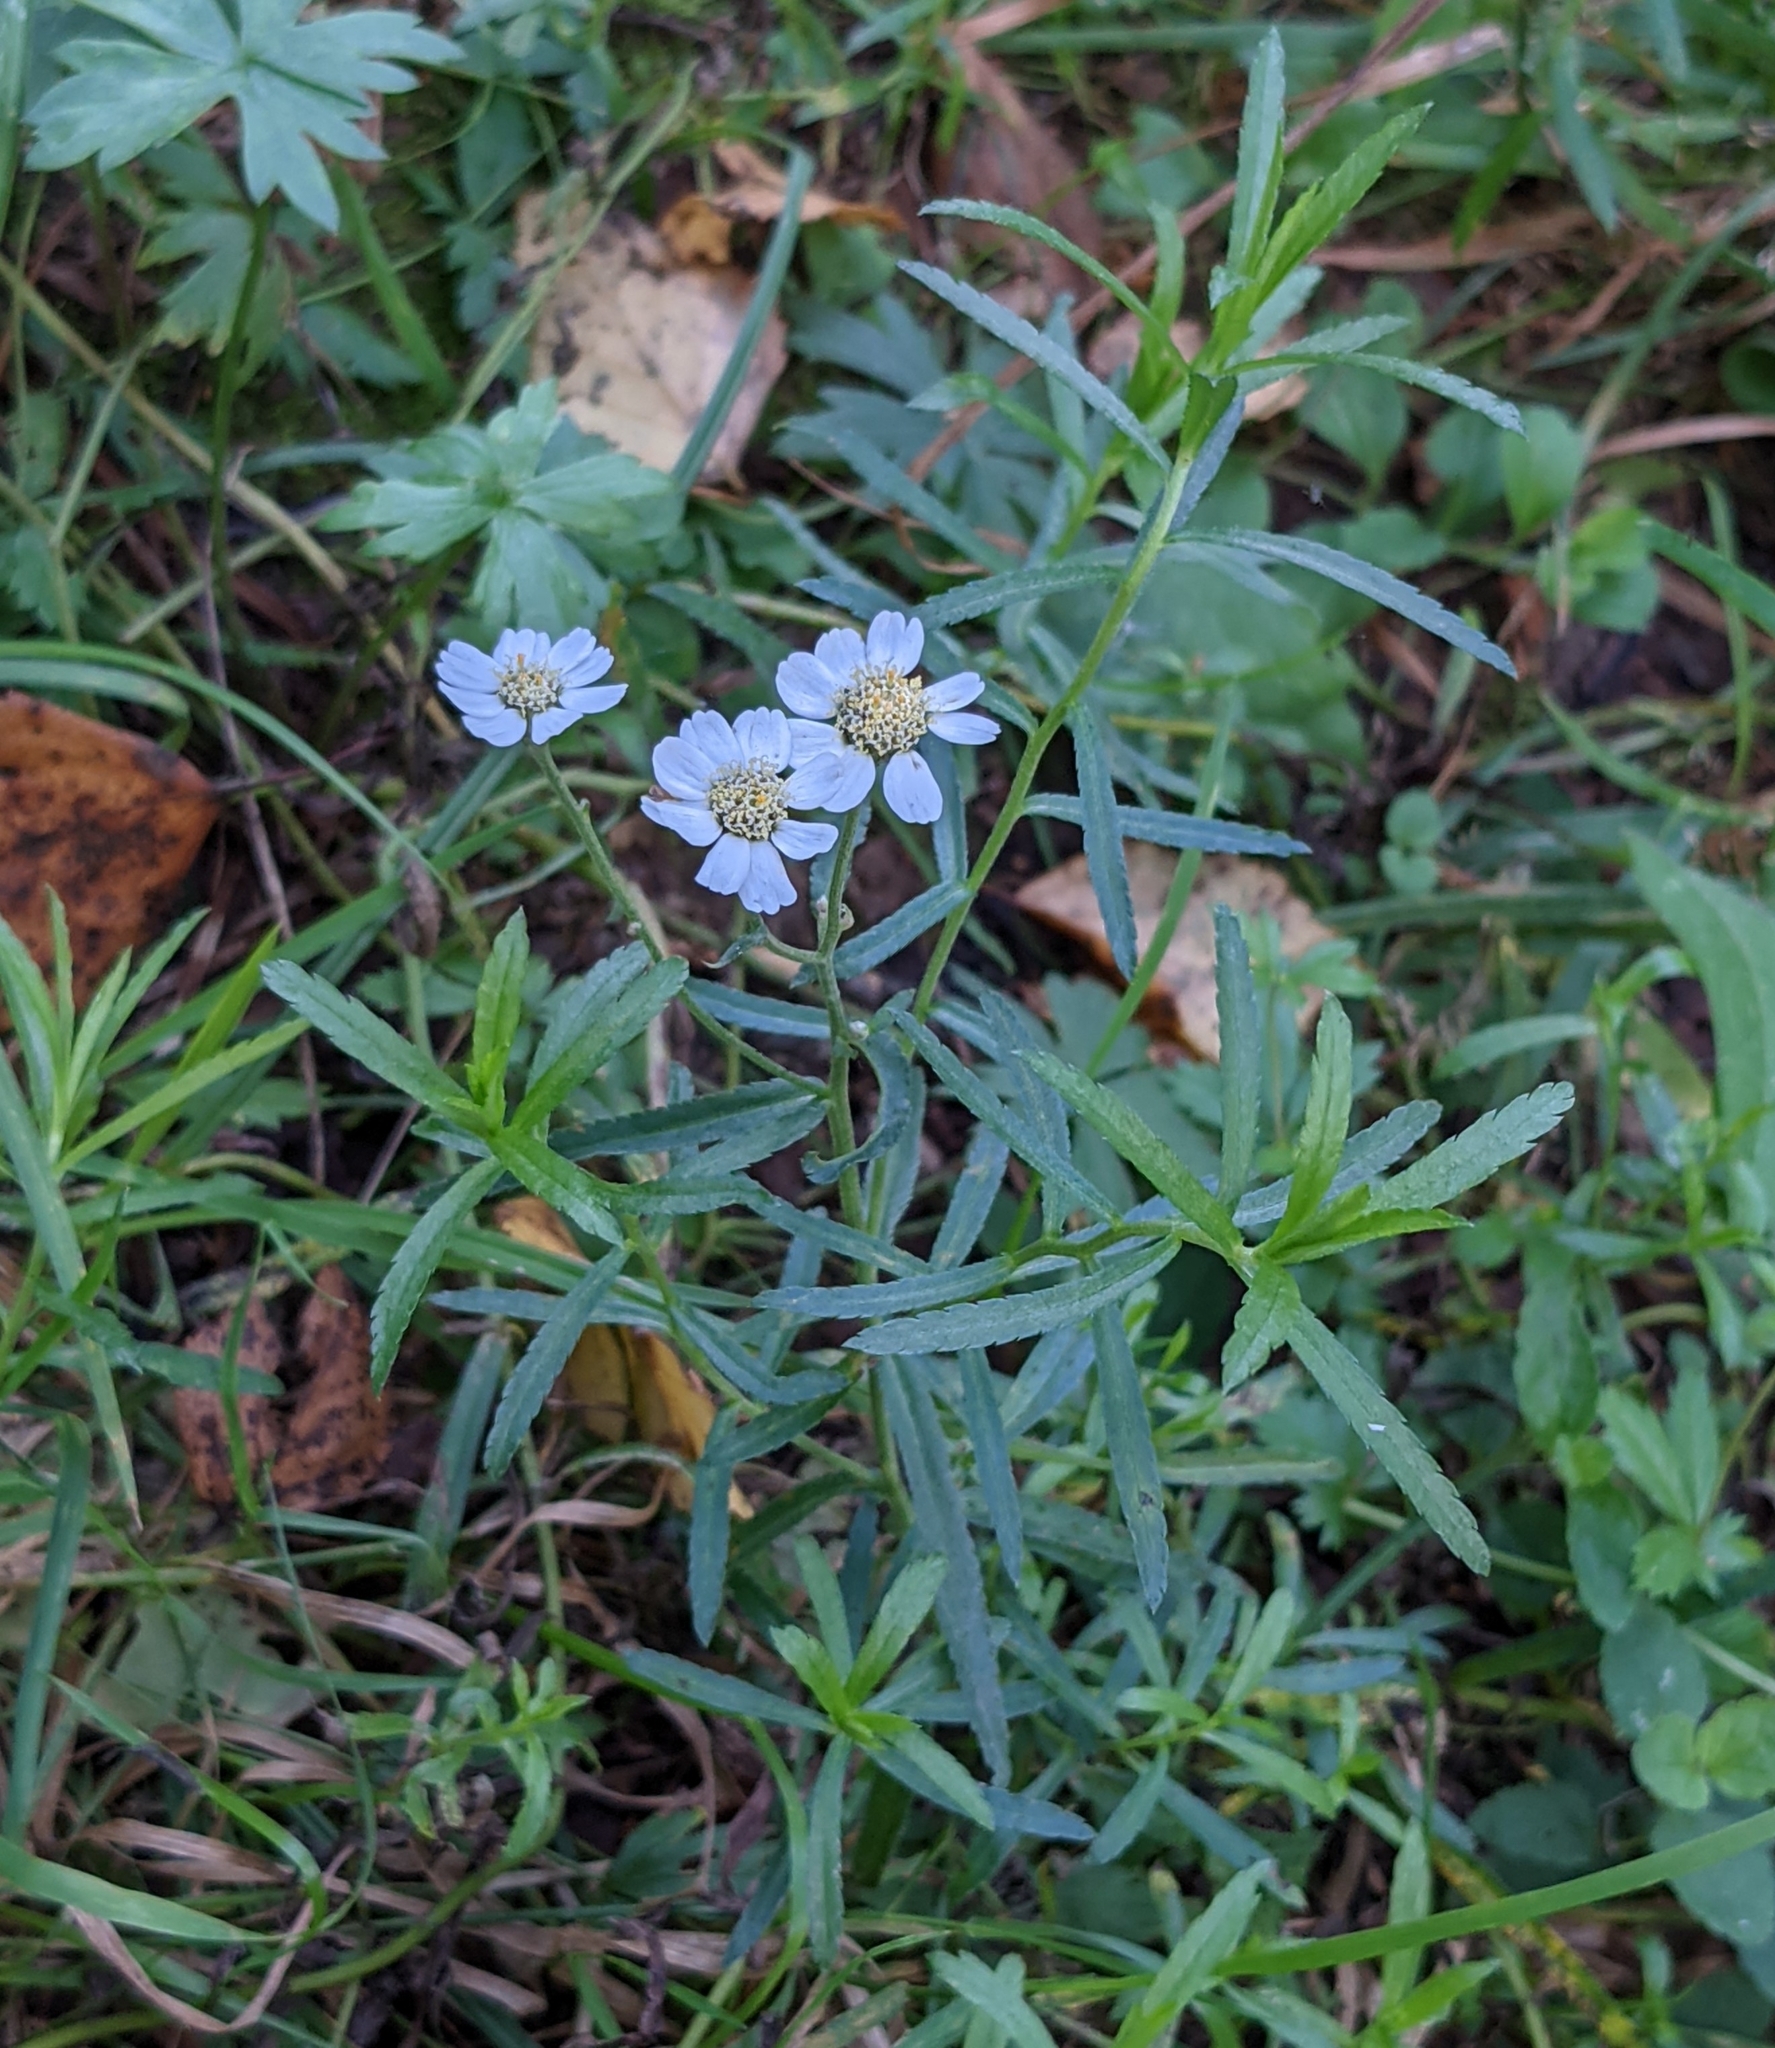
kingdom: Plantae
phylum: Tracheophyta
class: Magnoliopsida
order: Asterales
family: Asteraceae
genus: Achillea
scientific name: Achillea ptarmica
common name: Sneezeweed
